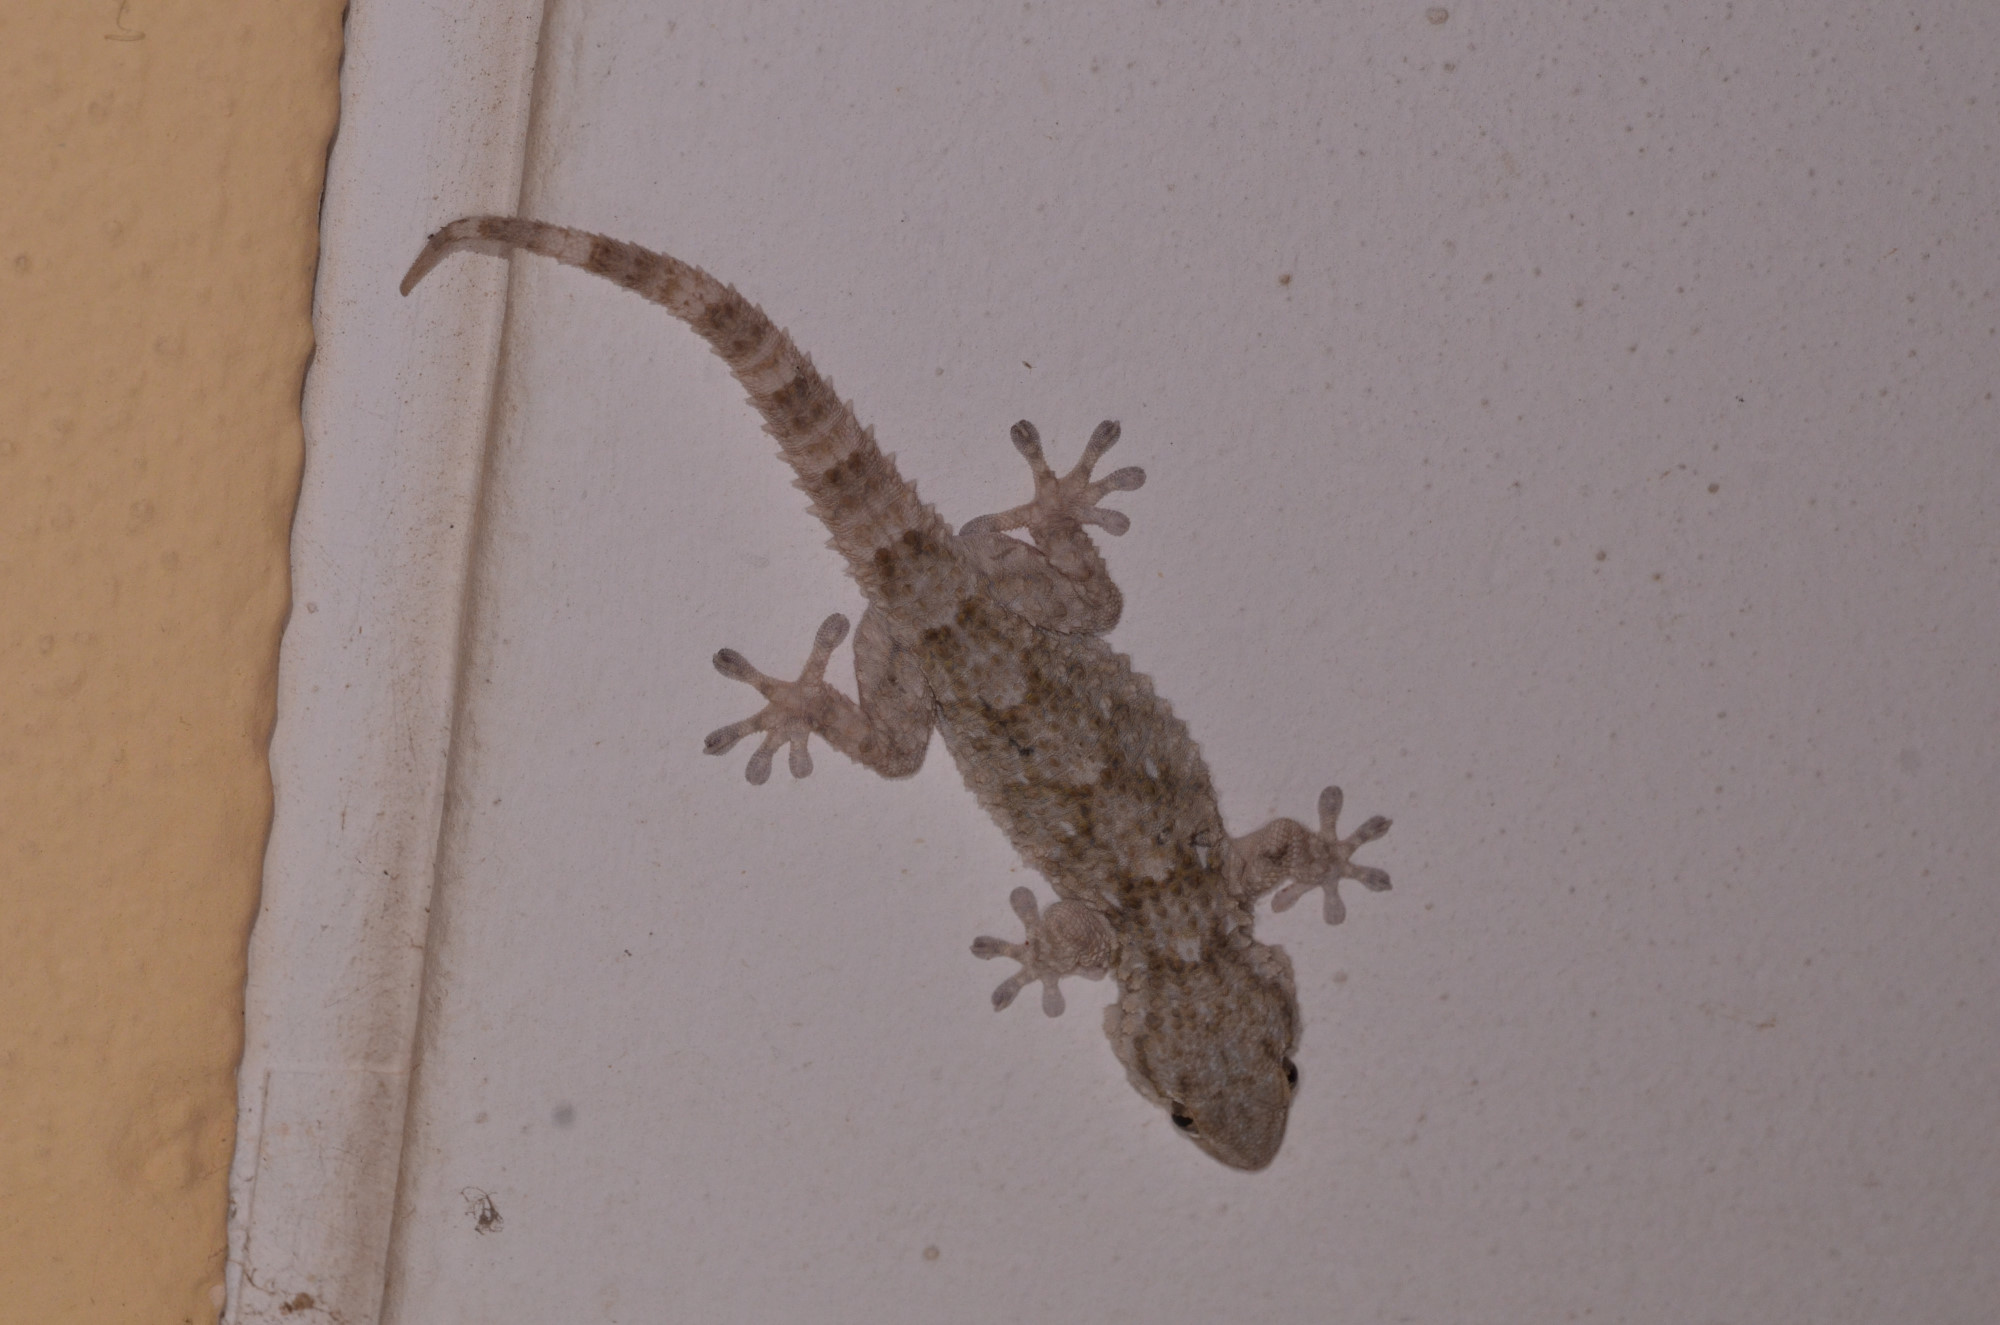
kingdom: Animalia
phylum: Chordata
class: Squamata
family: Phyllodactylidae
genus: Tarentola
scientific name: Tarentola mauritanica
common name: Moorish gecko
